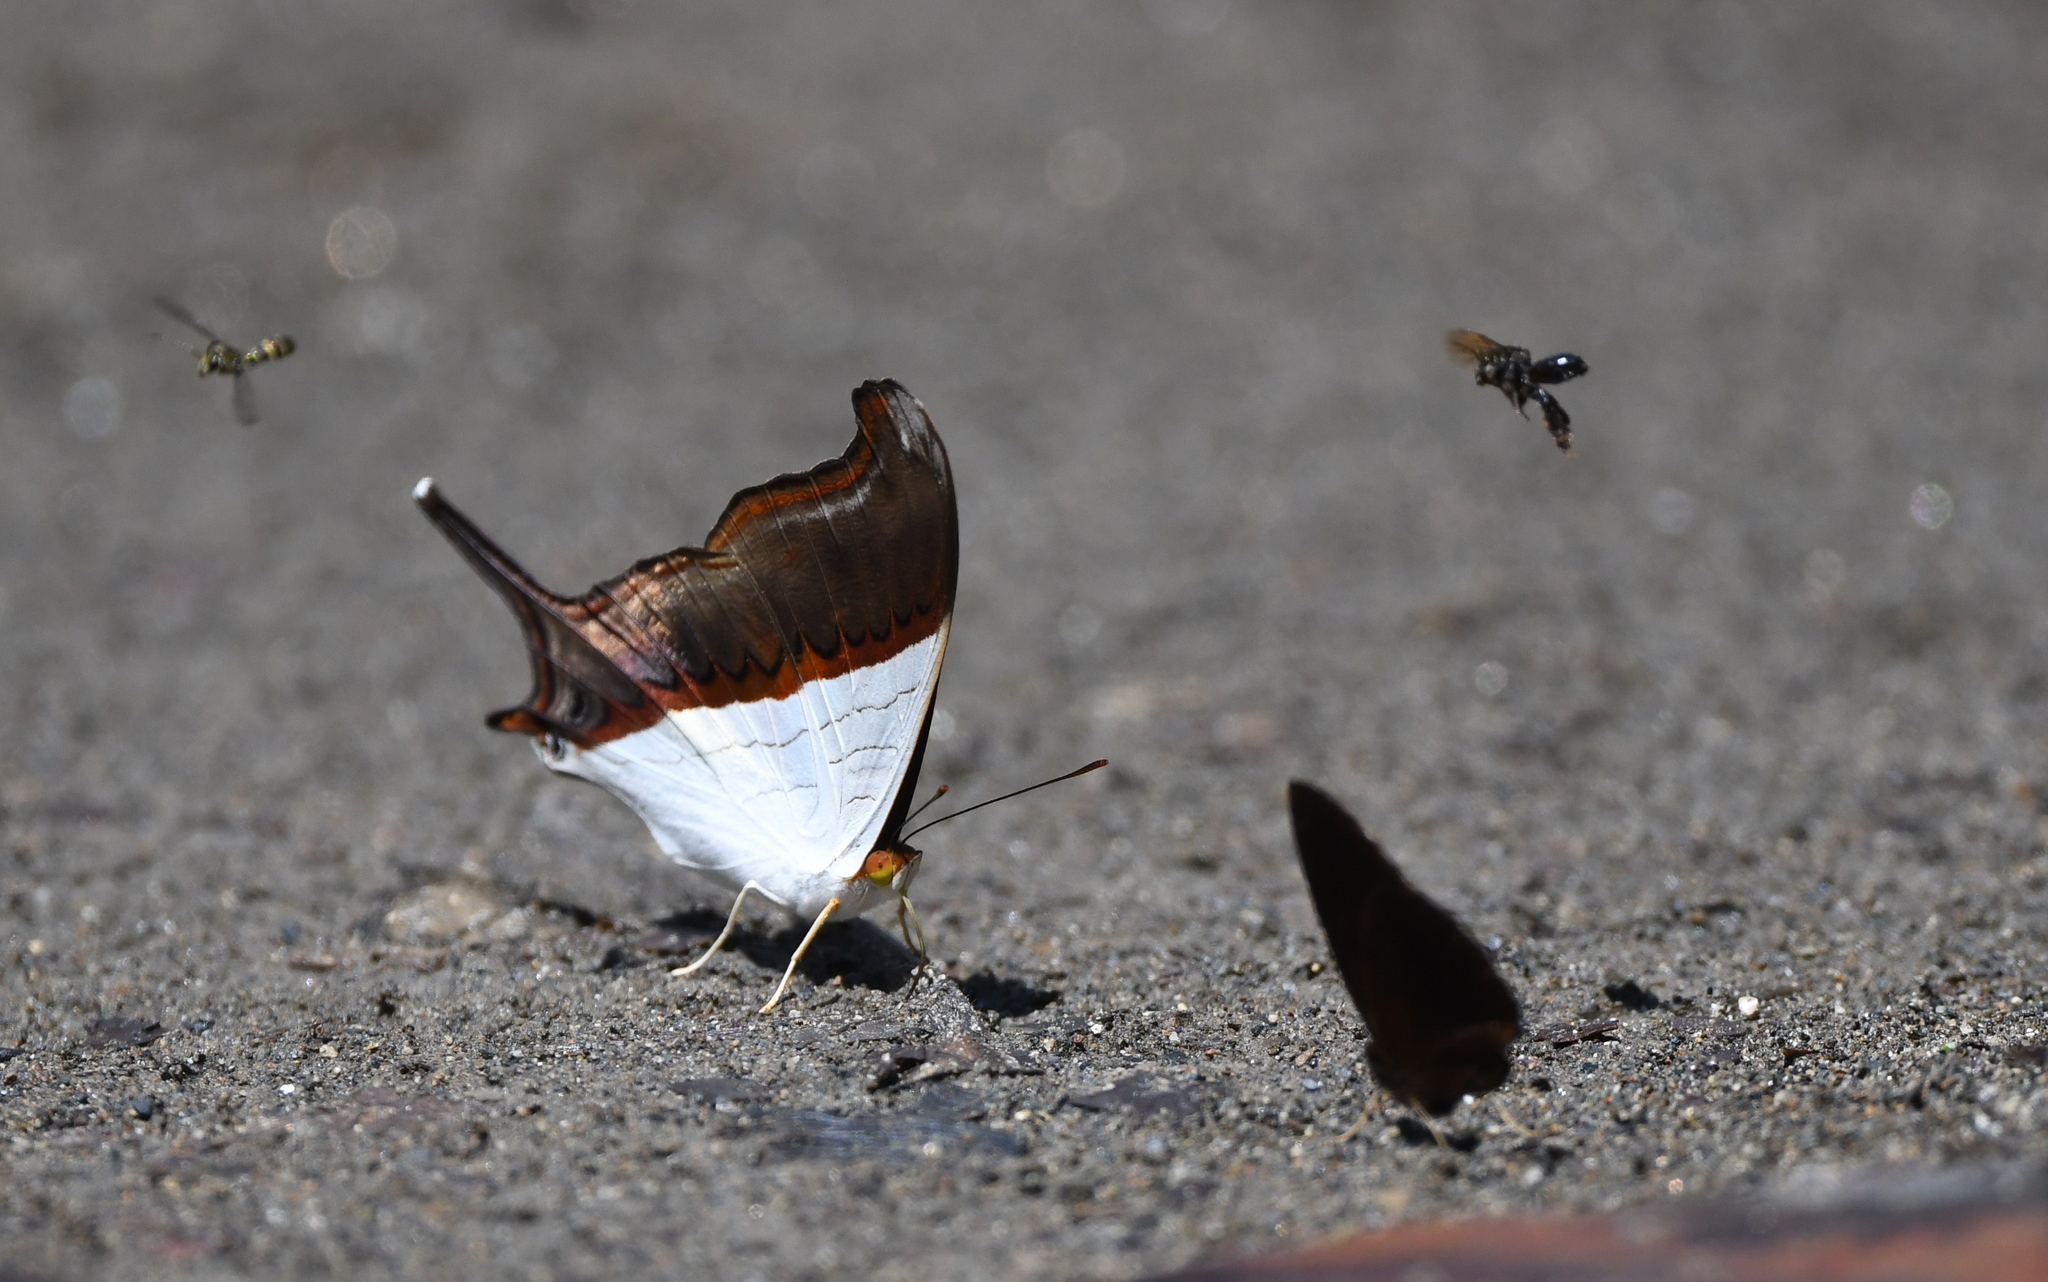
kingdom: Animalia
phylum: Arthropoda
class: Insecta
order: Lepidoptera
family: Nymphalidae
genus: Marpesia
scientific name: Marpesia zerynthia
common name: Waiter daggerwing
